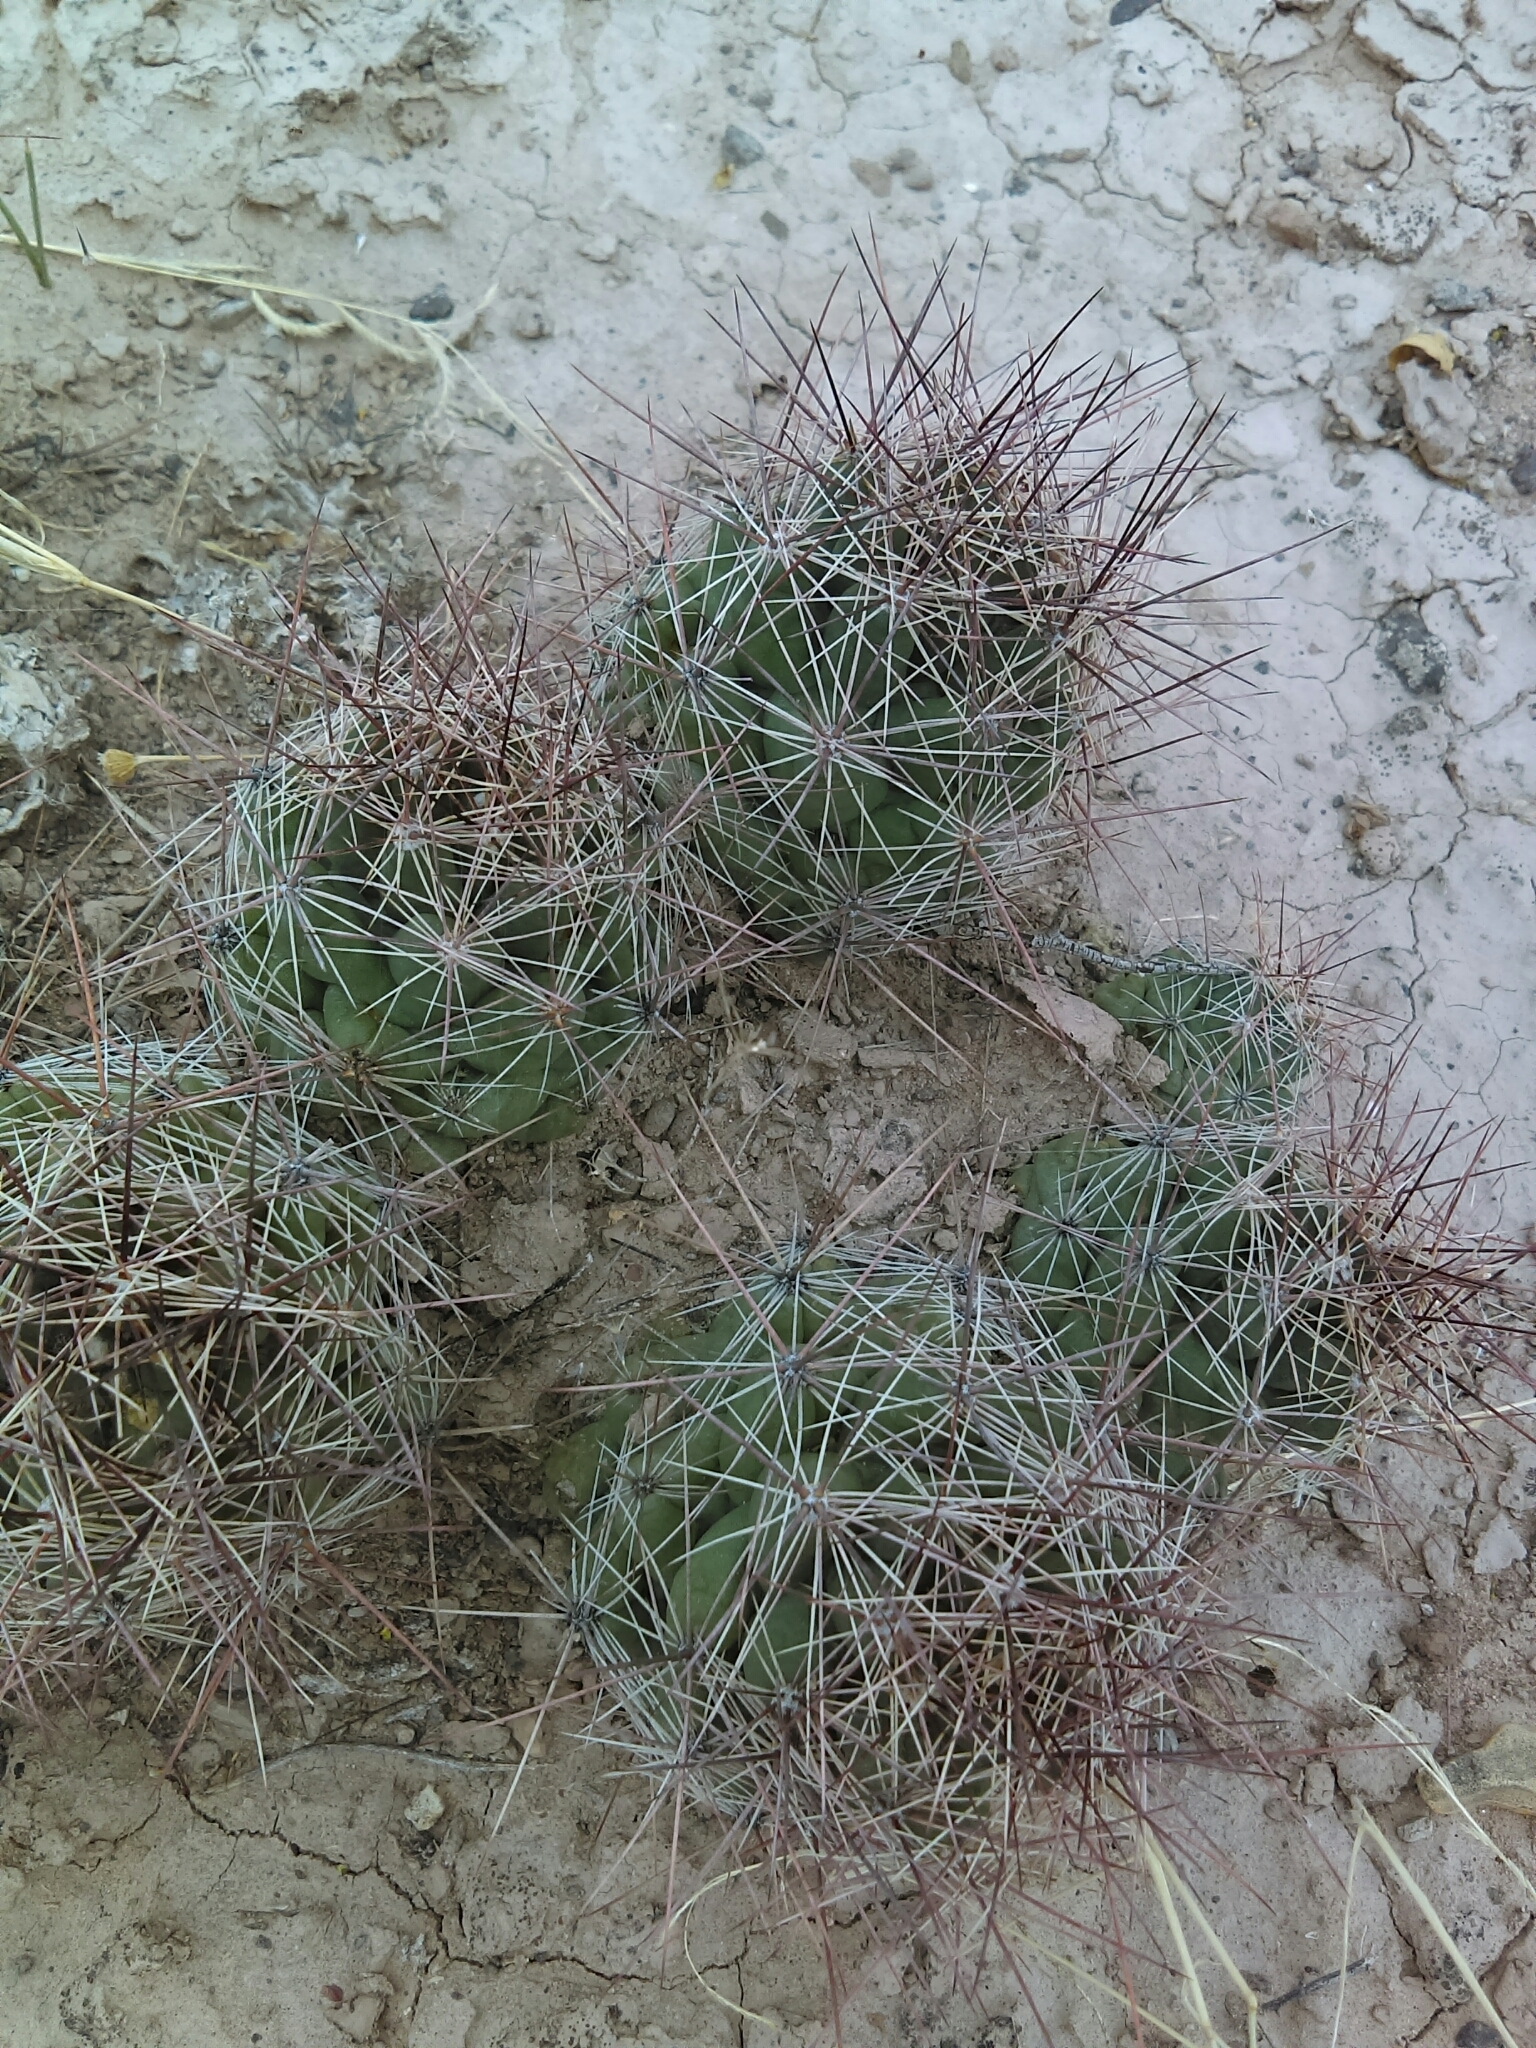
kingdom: Plantae
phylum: Tracheophyta
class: Magnoliopsida
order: Caryophyllales
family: Cactaceae
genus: Coryphantha
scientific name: Coryphantha macromeris
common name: Nipple beehive cactus
